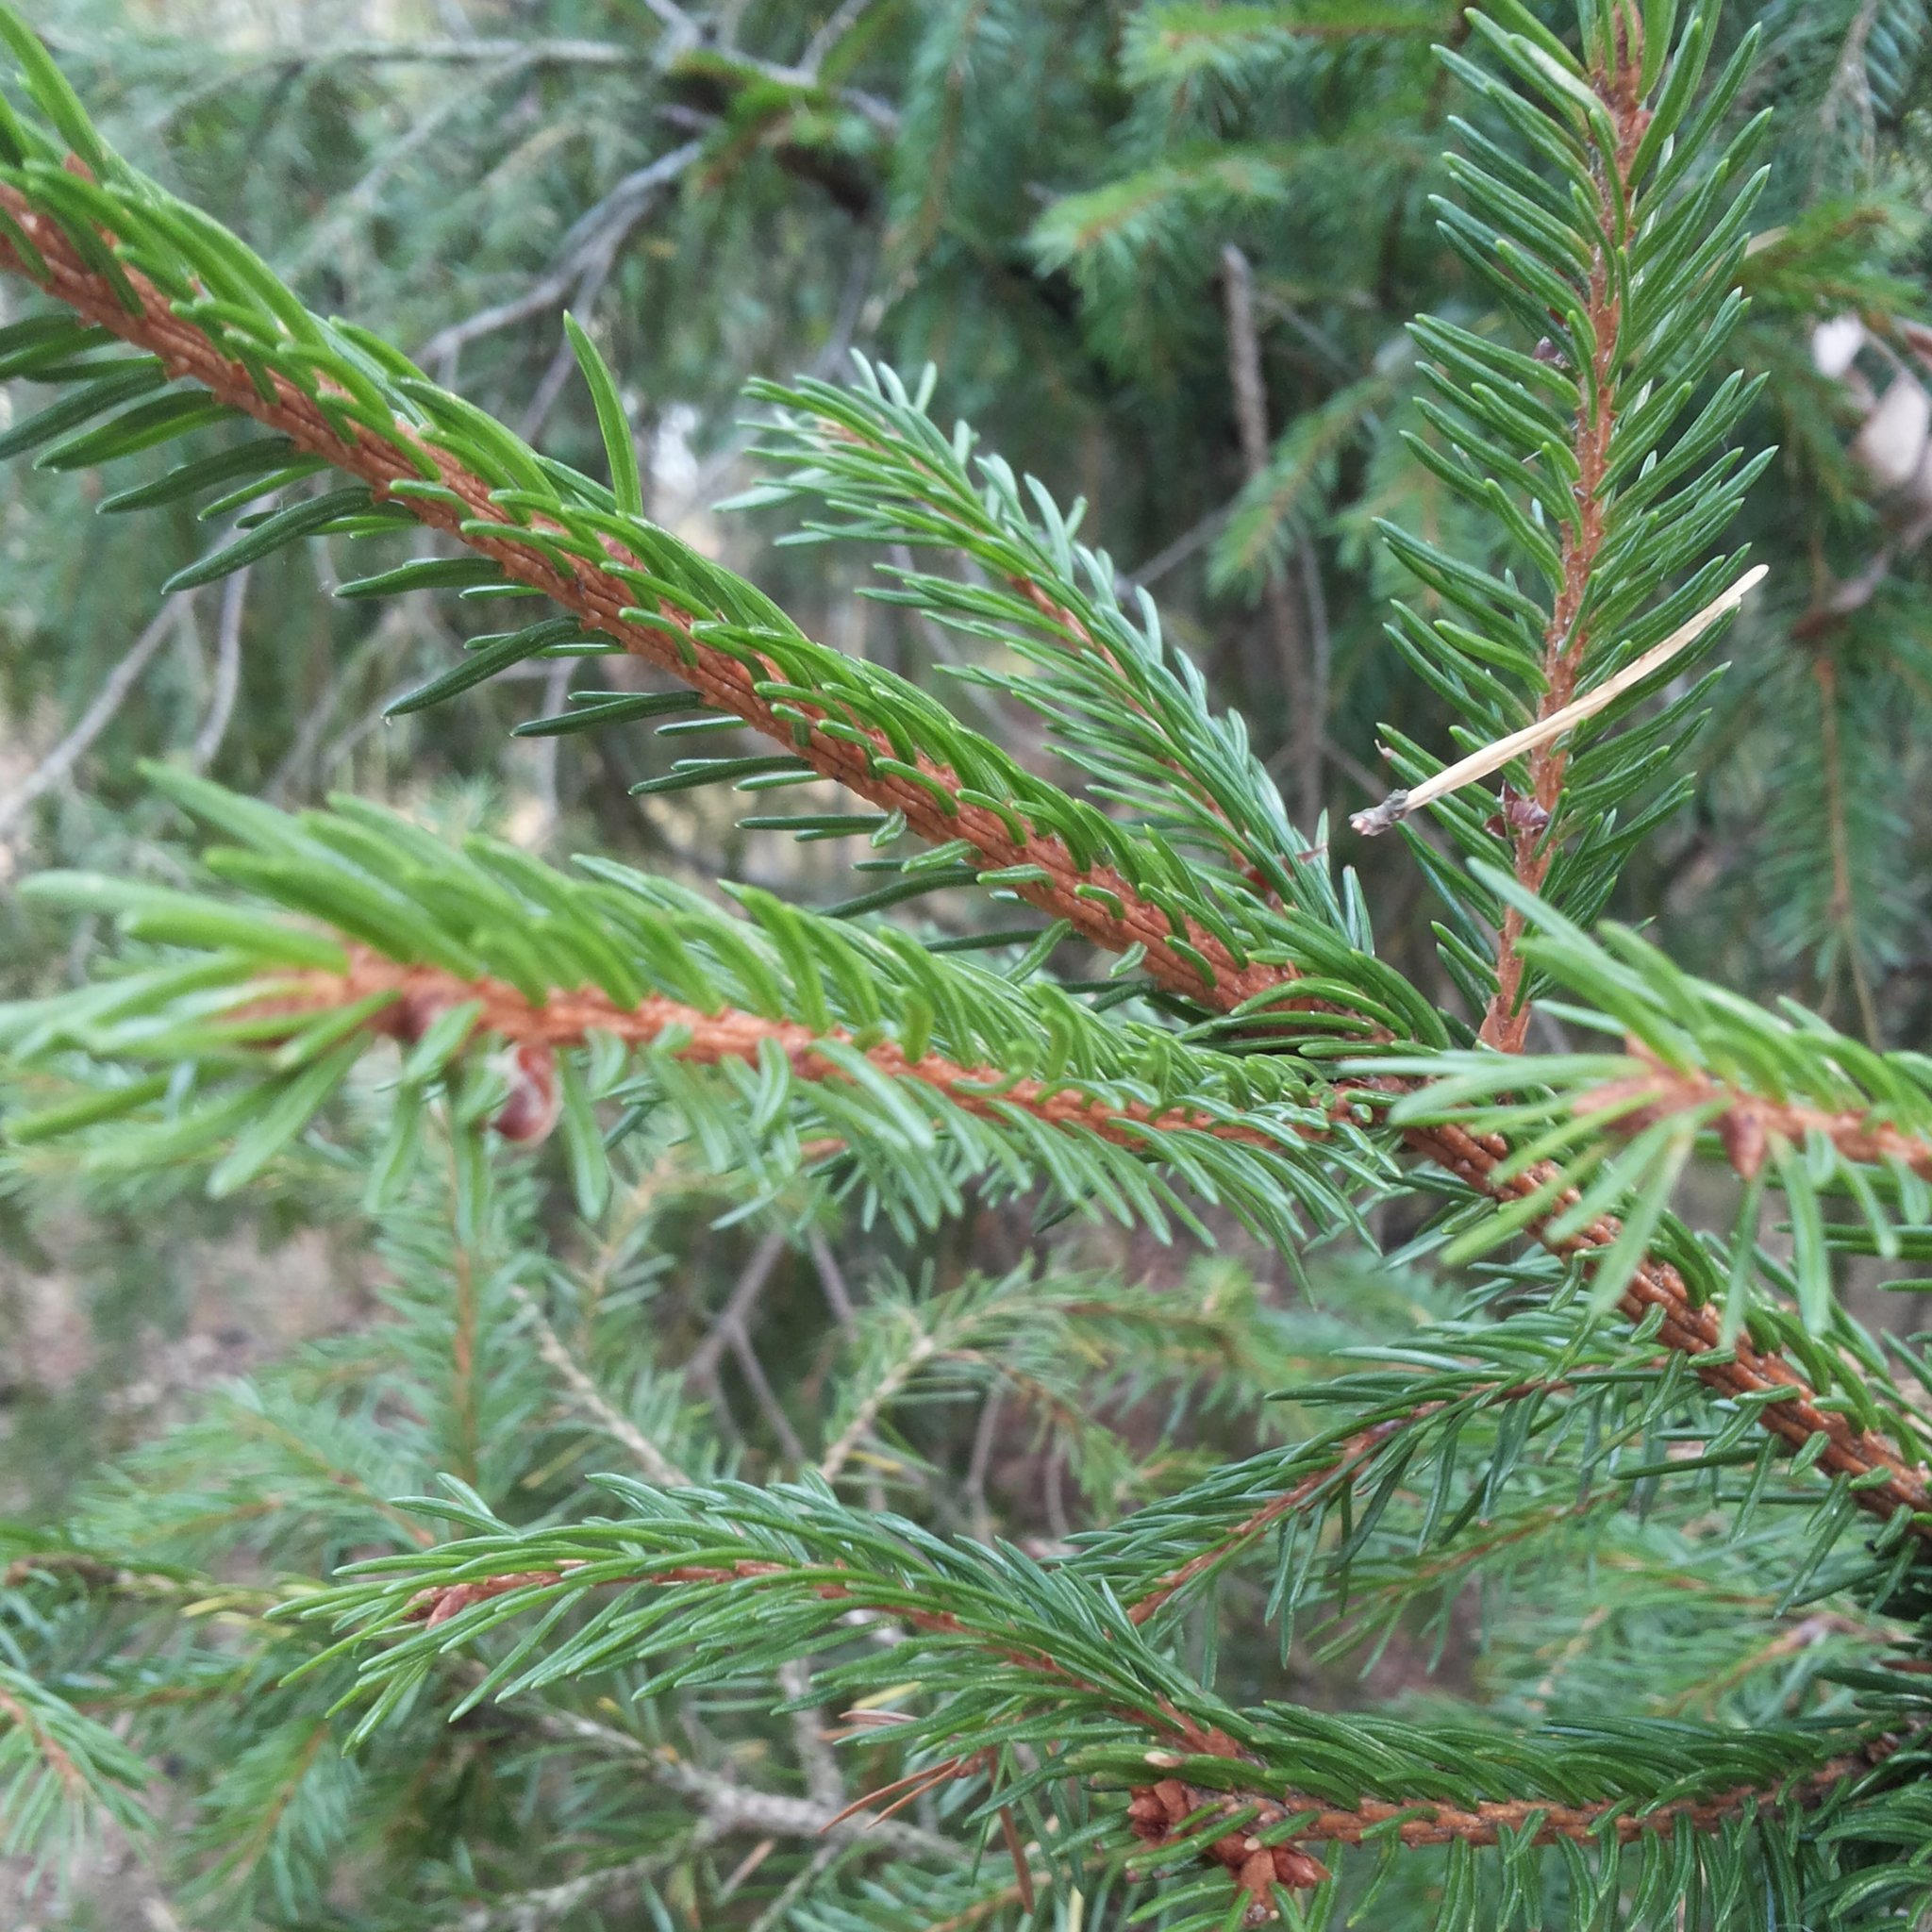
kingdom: Plantae
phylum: Tracheophyta
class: Pinopsida
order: Pinales
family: Pinaceae
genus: Picea
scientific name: Picea abies
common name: Norway spruce
